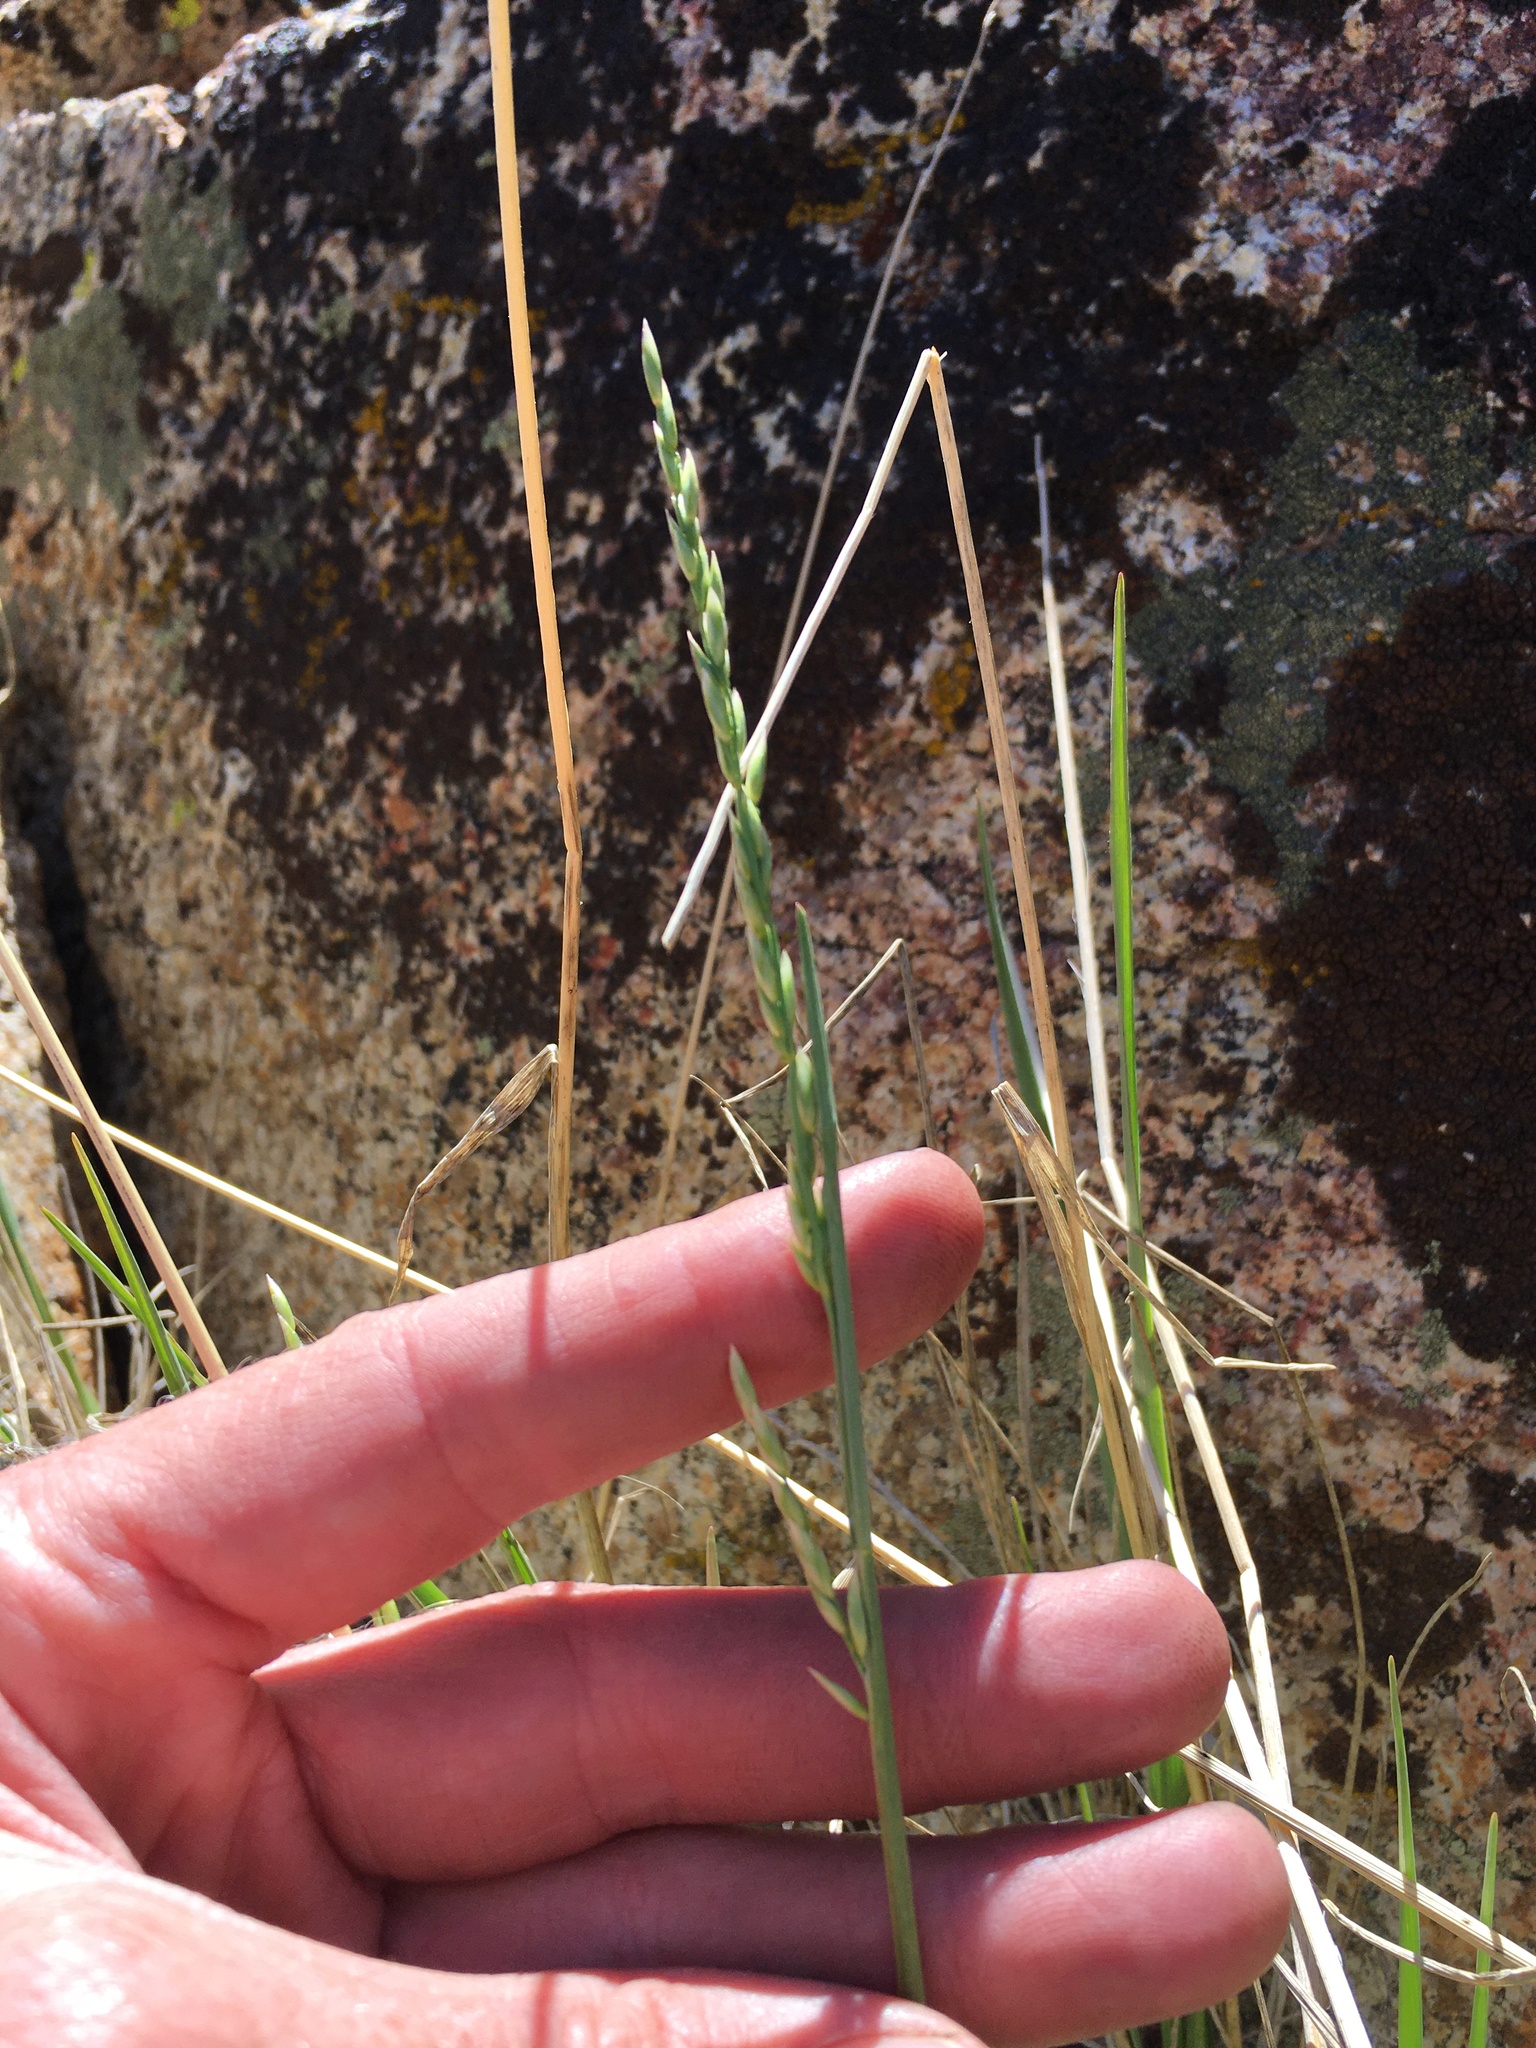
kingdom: Plantae
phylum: Tracheophyta
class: Liliopsida
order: Poales
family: Poaceae
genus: Festuca
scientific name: Festuca kingii
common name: Spike fescue
